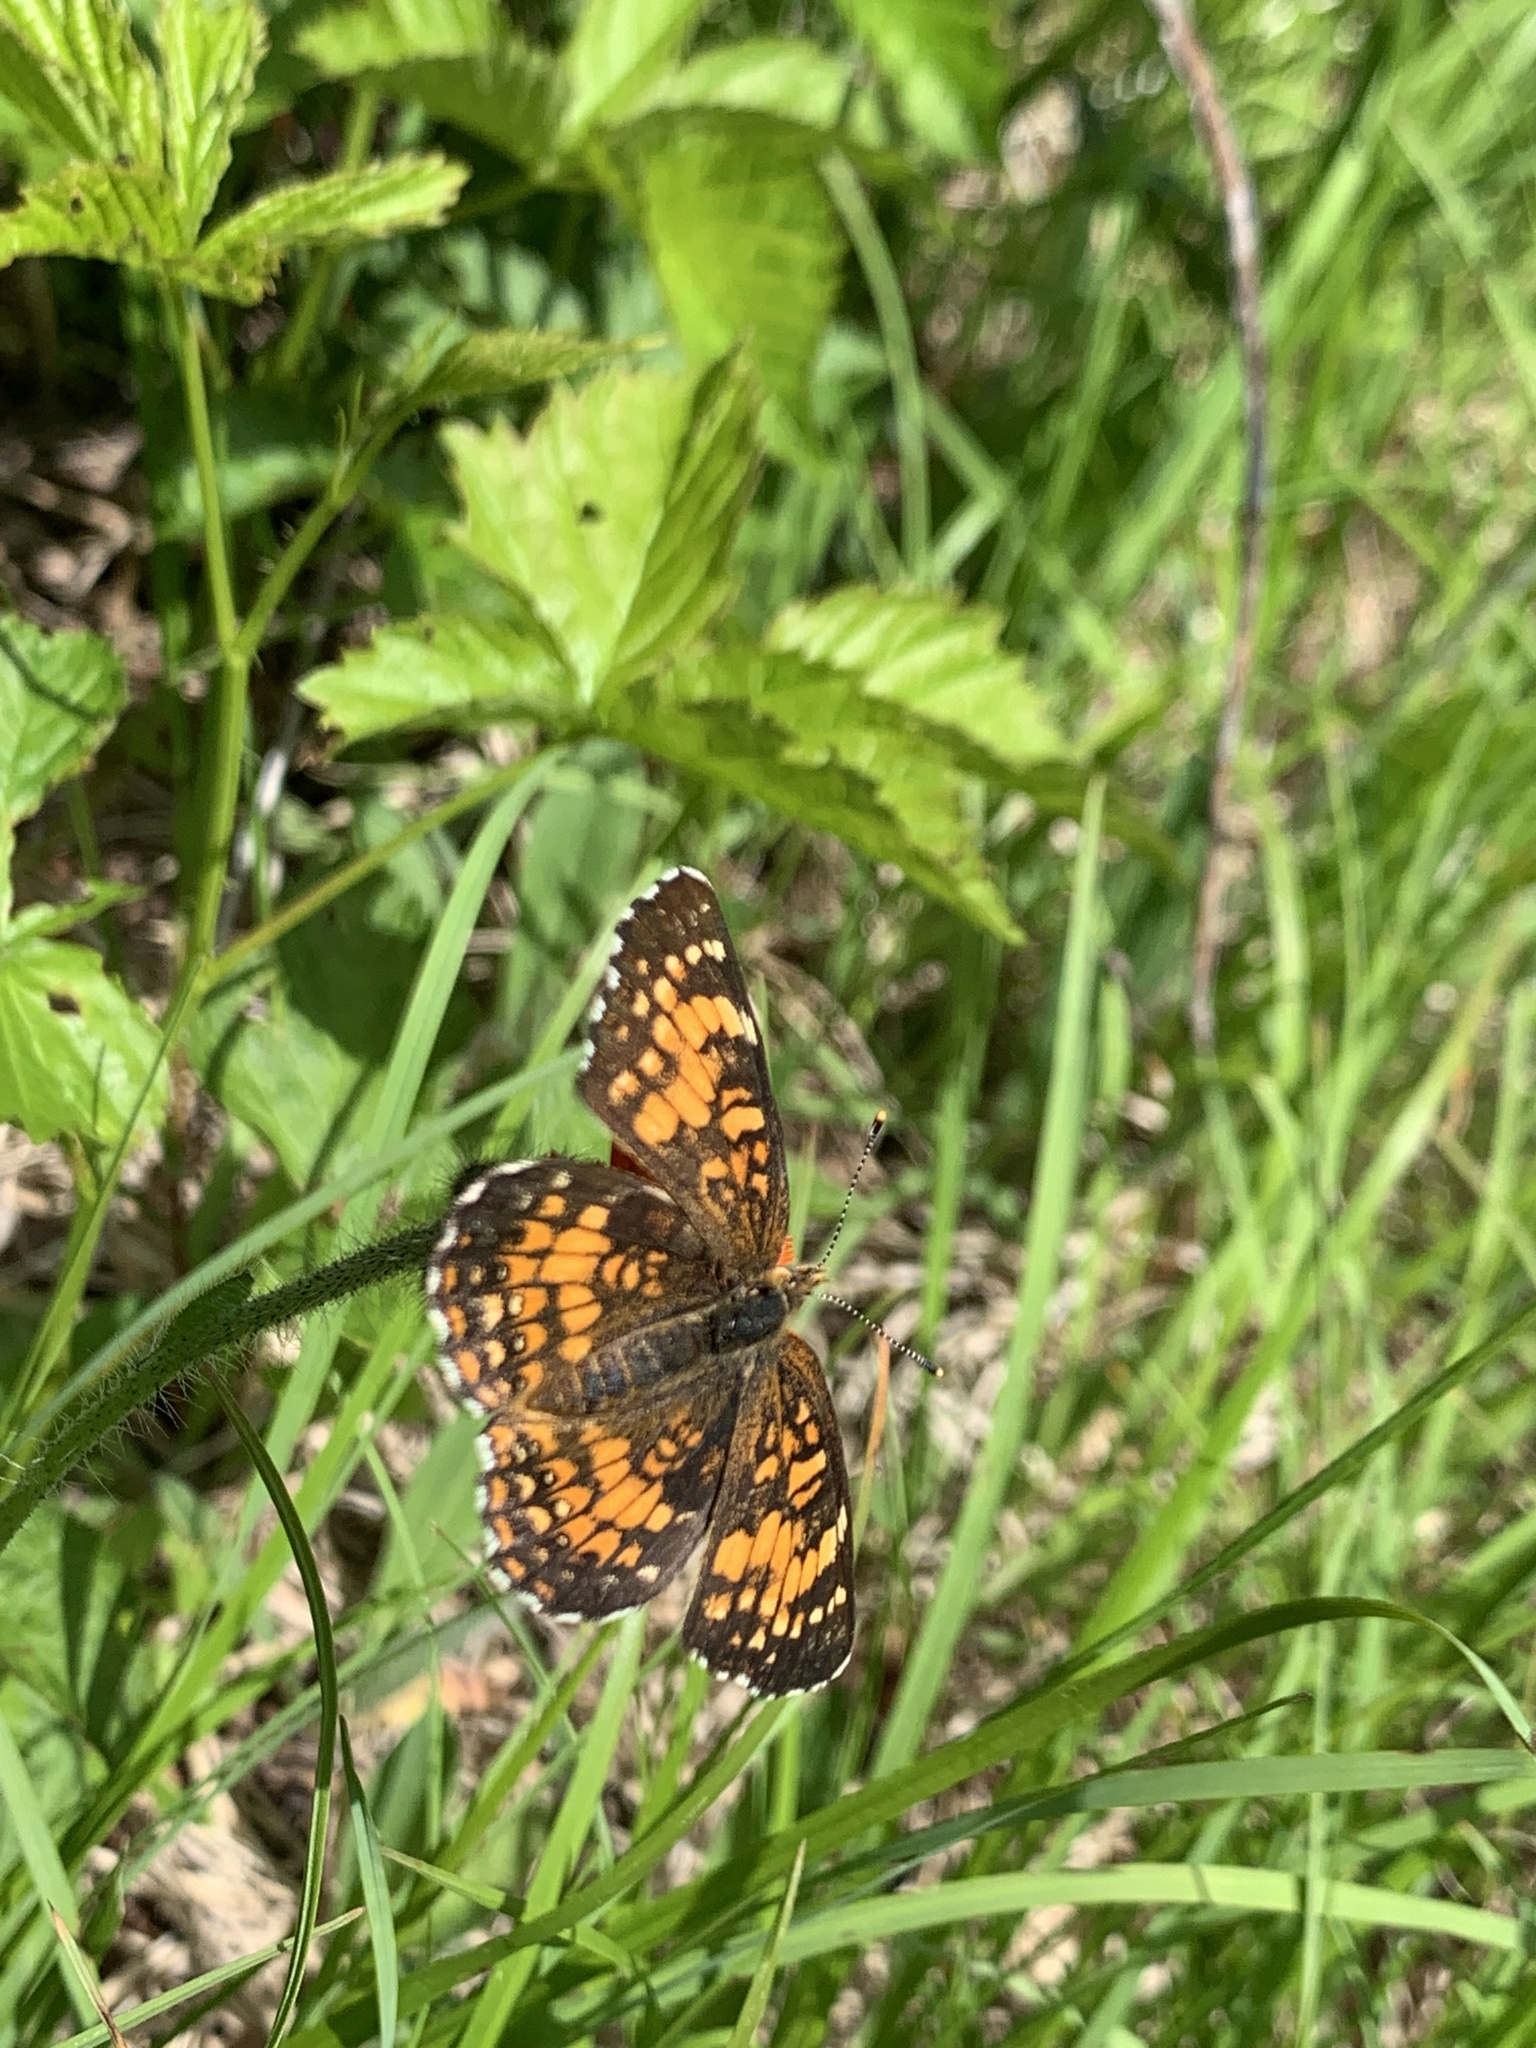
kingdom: Animalia
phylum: Arthropoda
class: Insecta
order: Lepidoptera
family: Nymphalidae
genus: Chlosyne
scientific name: Chlosyne harrisii
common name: Harris's checkerspot
